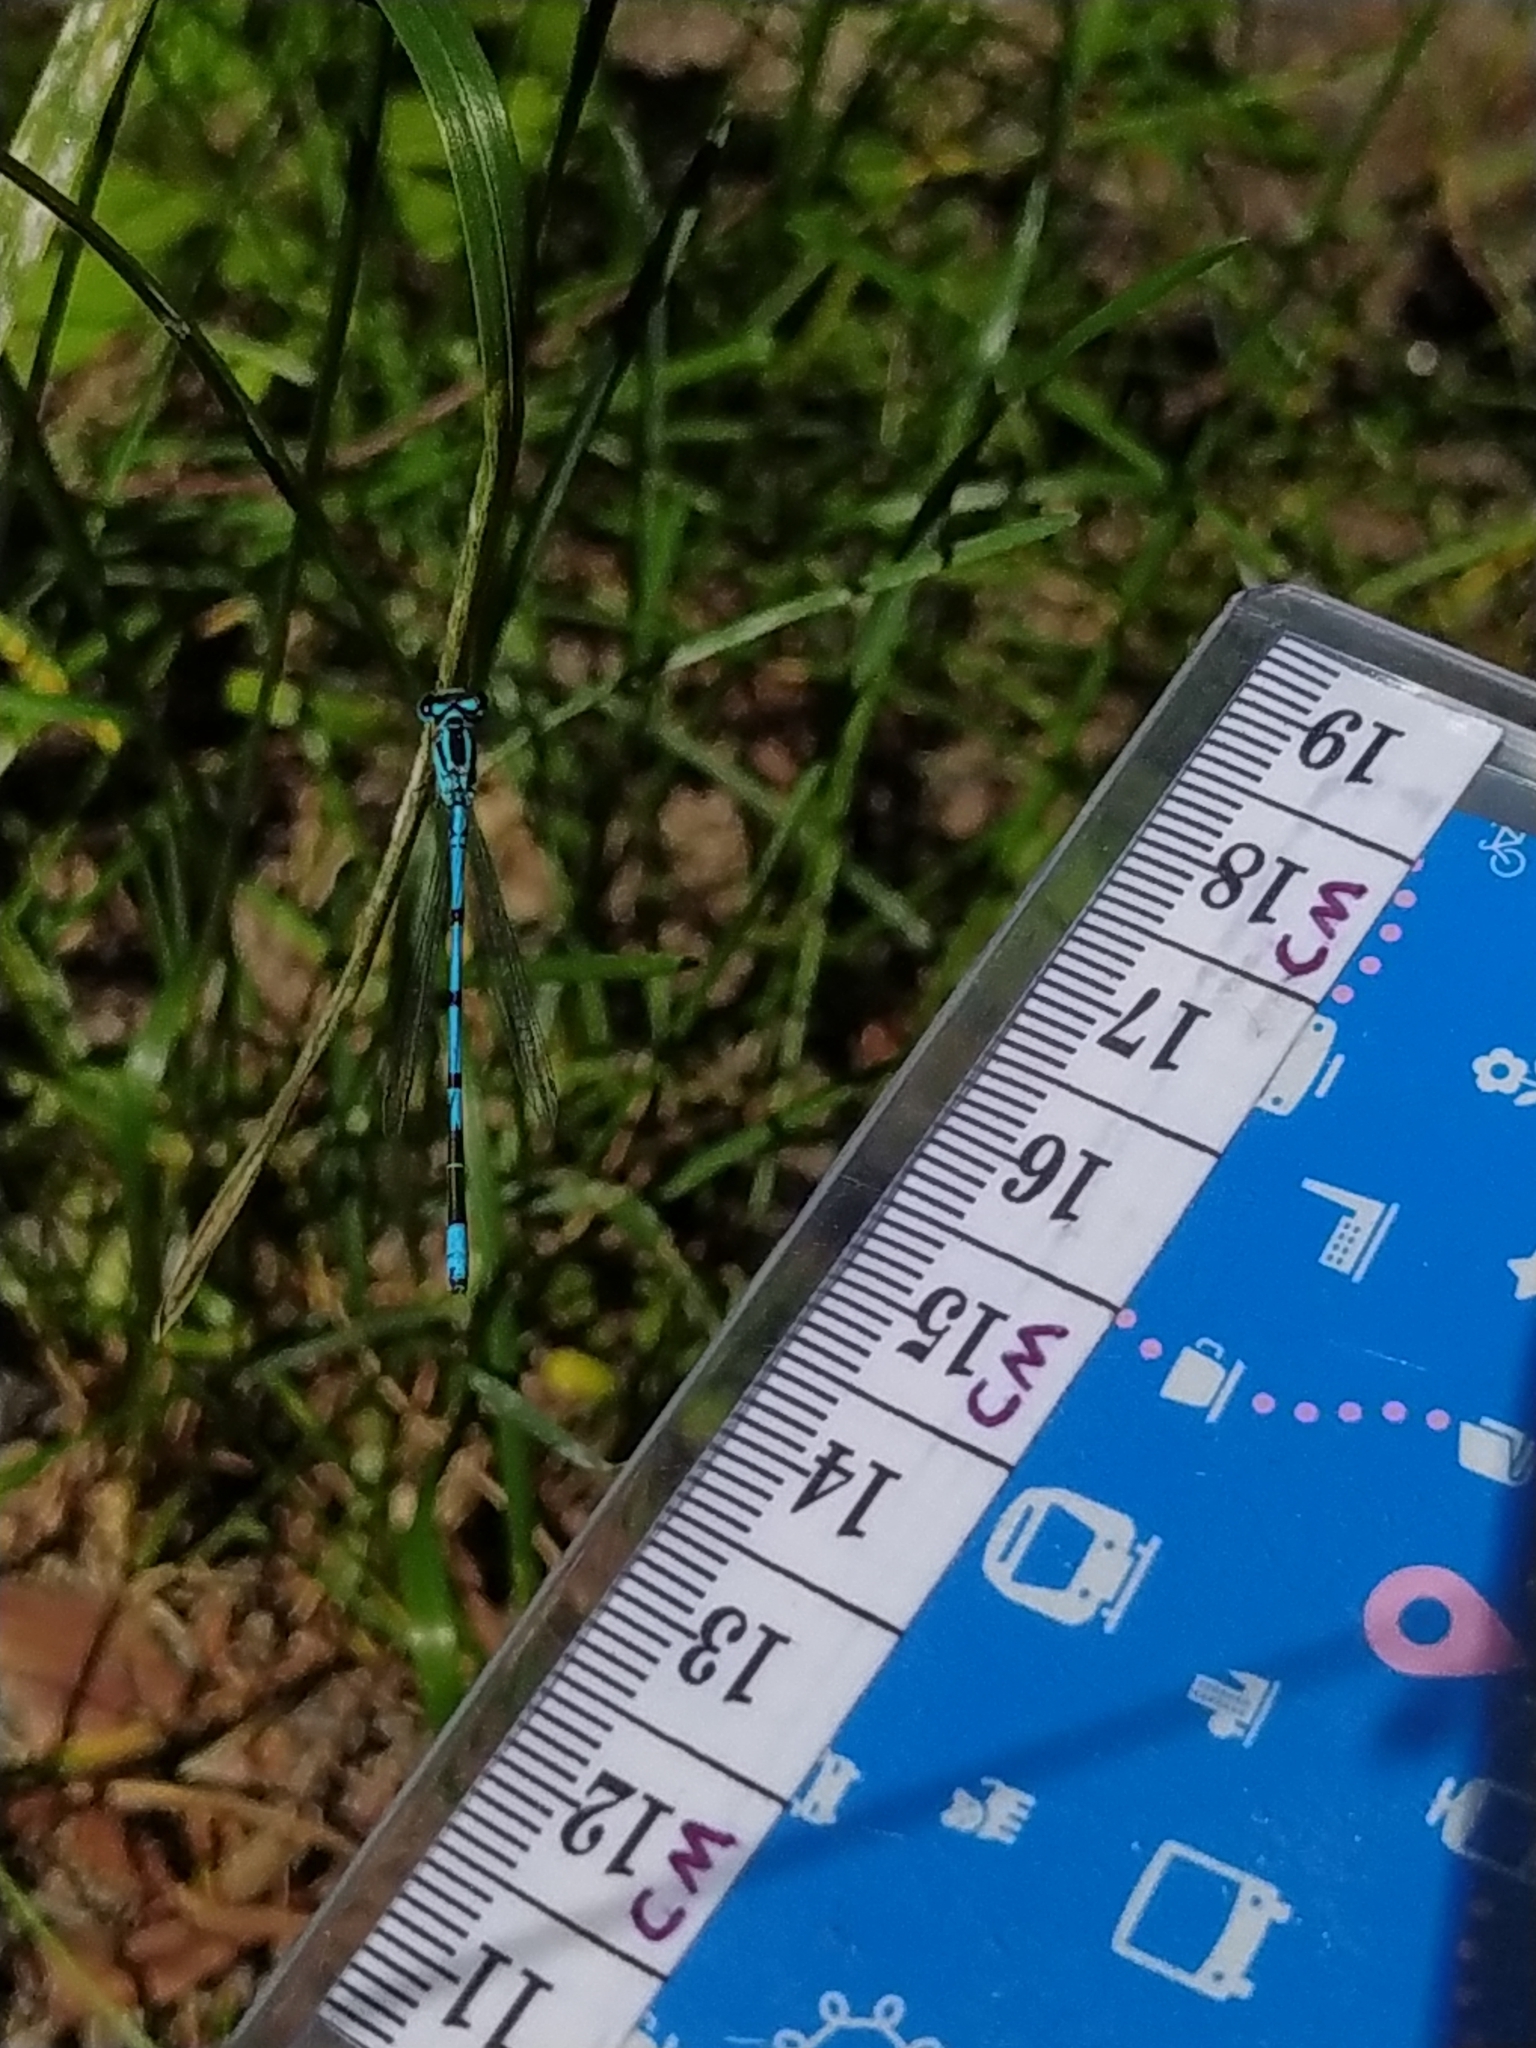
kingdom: Animalia
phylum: Arthropoda
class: Insecta
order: Odonata
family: Coenagrionidae
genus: Coenagrion
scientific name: Coenagrion puella
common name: Azure damselfly
